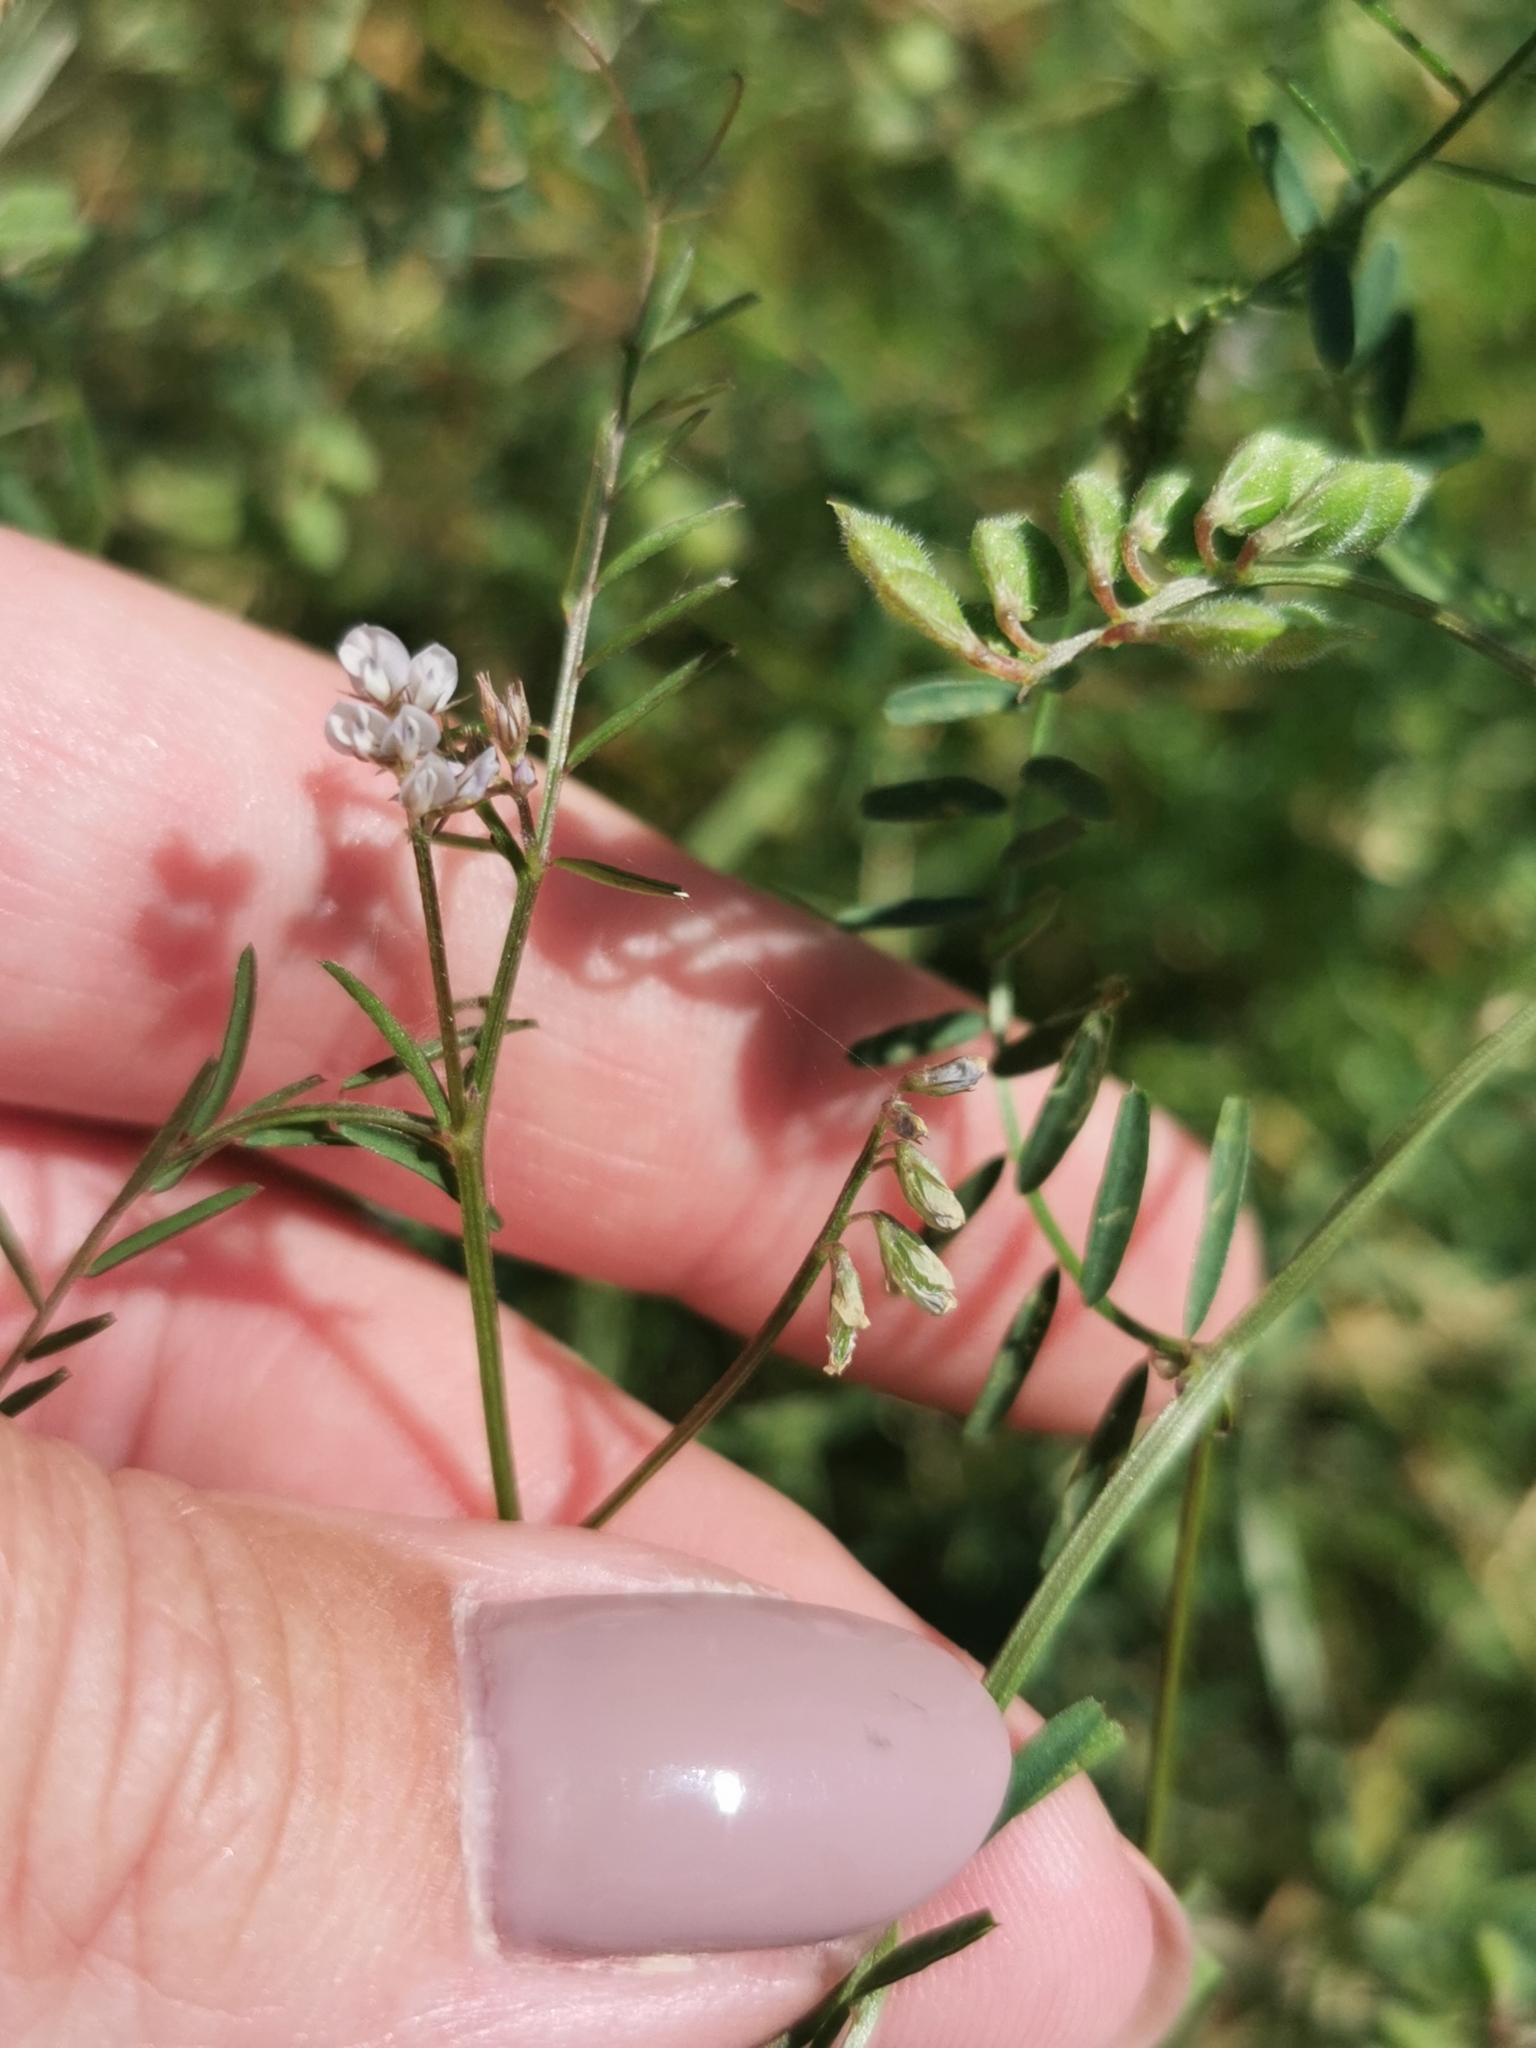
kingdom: Plantae
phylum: Tracheophyta
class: Magnoliopsida
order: Fabales
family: Fabaceae
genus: Vicia
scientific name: Vicia hirsuta
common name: Tiny vetch
